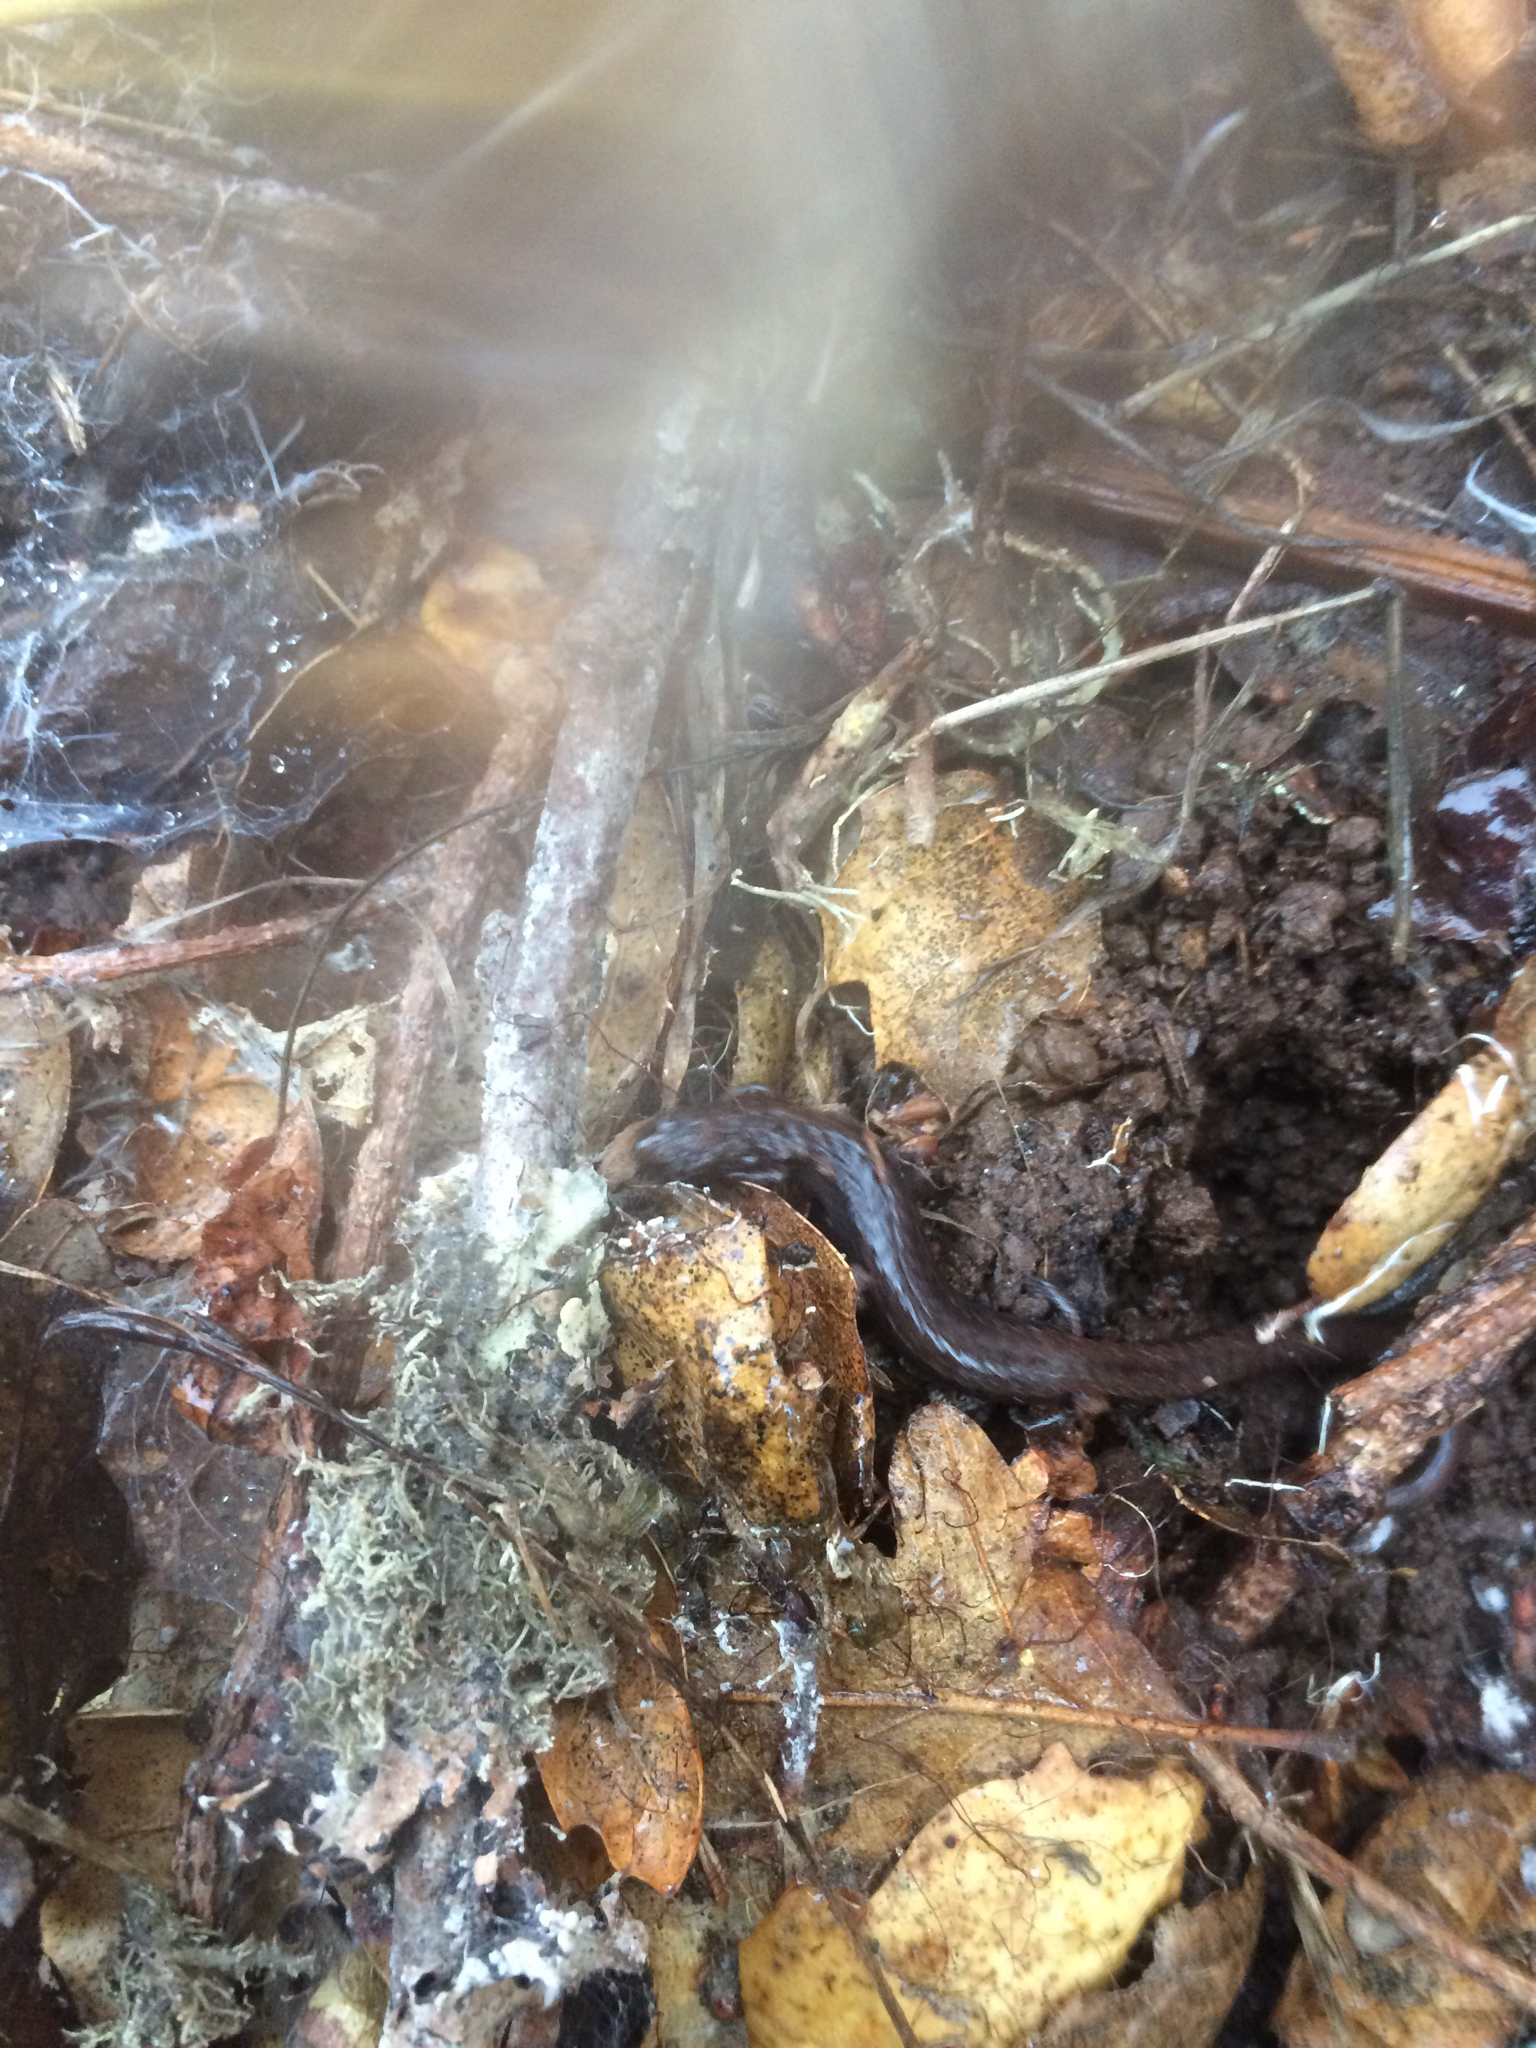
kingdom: Animalia
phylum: Chordata
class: Amphibia
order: Caudata
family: Plethodontidae
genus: Batrachoseps
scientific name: Batrachoseps attenuatus
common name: California slender salamander
